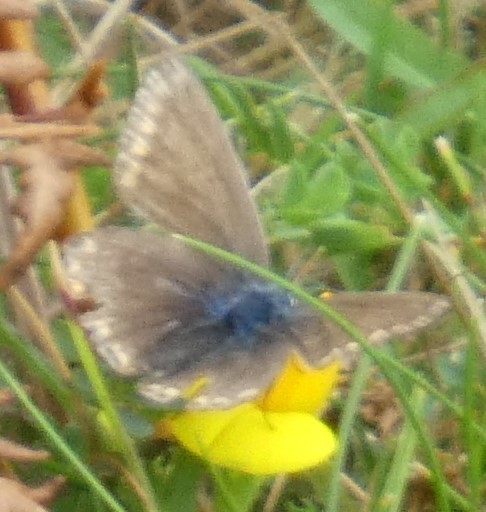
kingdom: Animalia
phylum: Arthropoda
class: Insecta
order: Lepidoptera
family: Lycaenidae
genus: Polyommatus
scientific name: Polyommatus icarus
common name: Common blue
